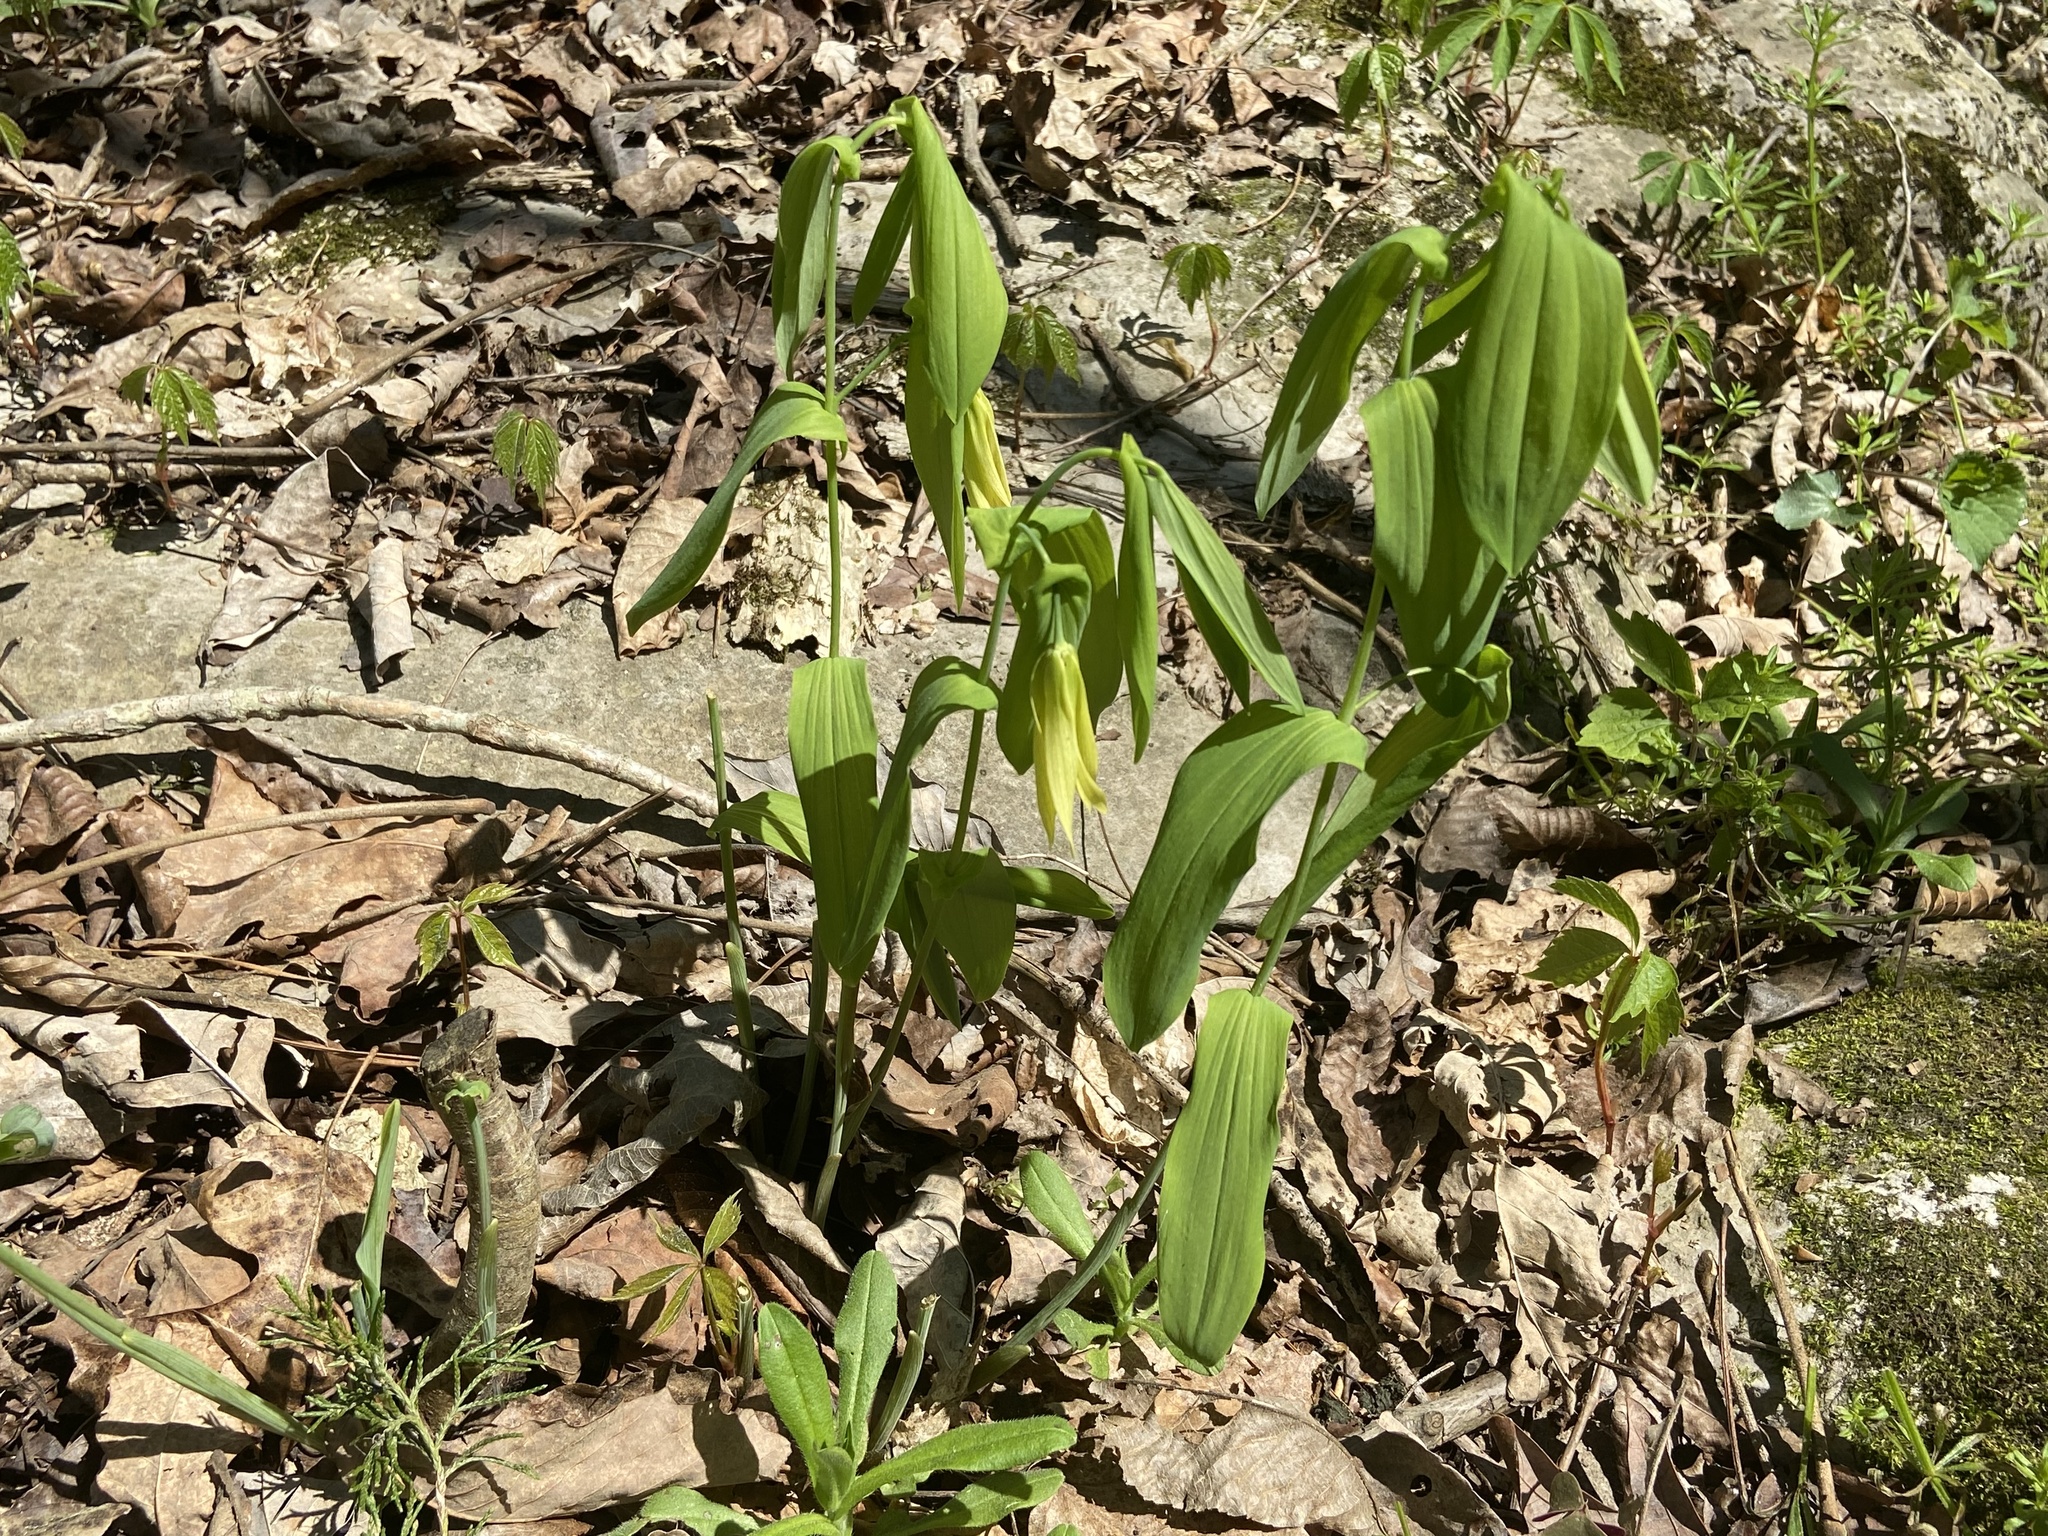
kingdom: Plantae
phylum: Tracheophyta
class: Liliopsida
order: Liliales
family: Colchicaceae
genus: Uvularia
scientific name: Uvularia grandiflora
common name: Bellwort
